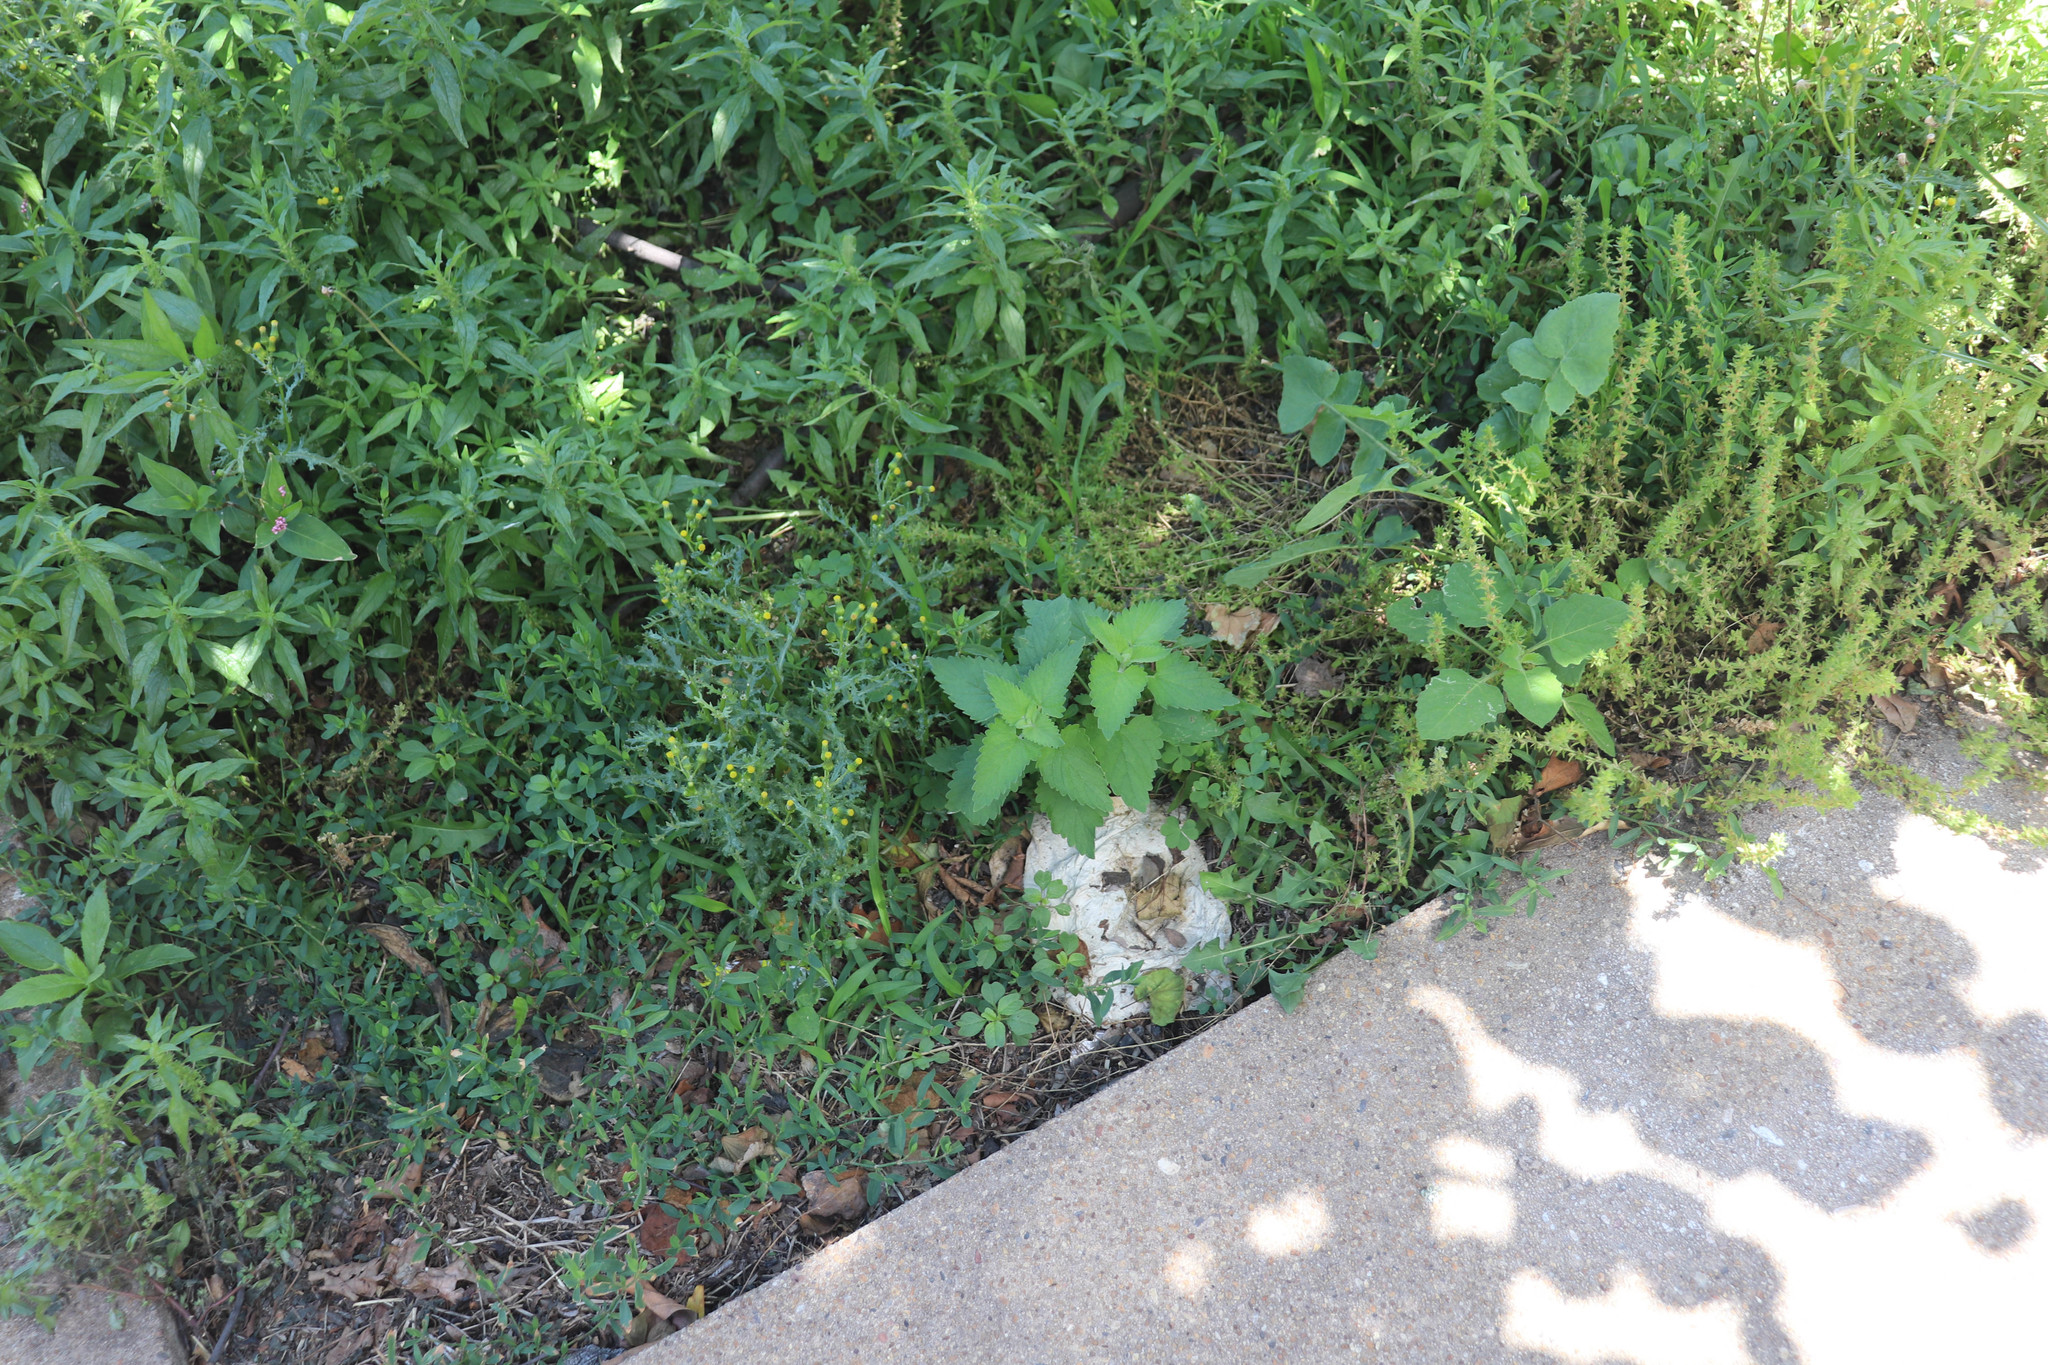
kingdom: Plantae
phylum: Tracheophyta
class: Magnoliopsida
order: Lamiales
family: Lamiaceae
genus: Nepeta
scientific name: Nepeta cataria
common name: Catnip
